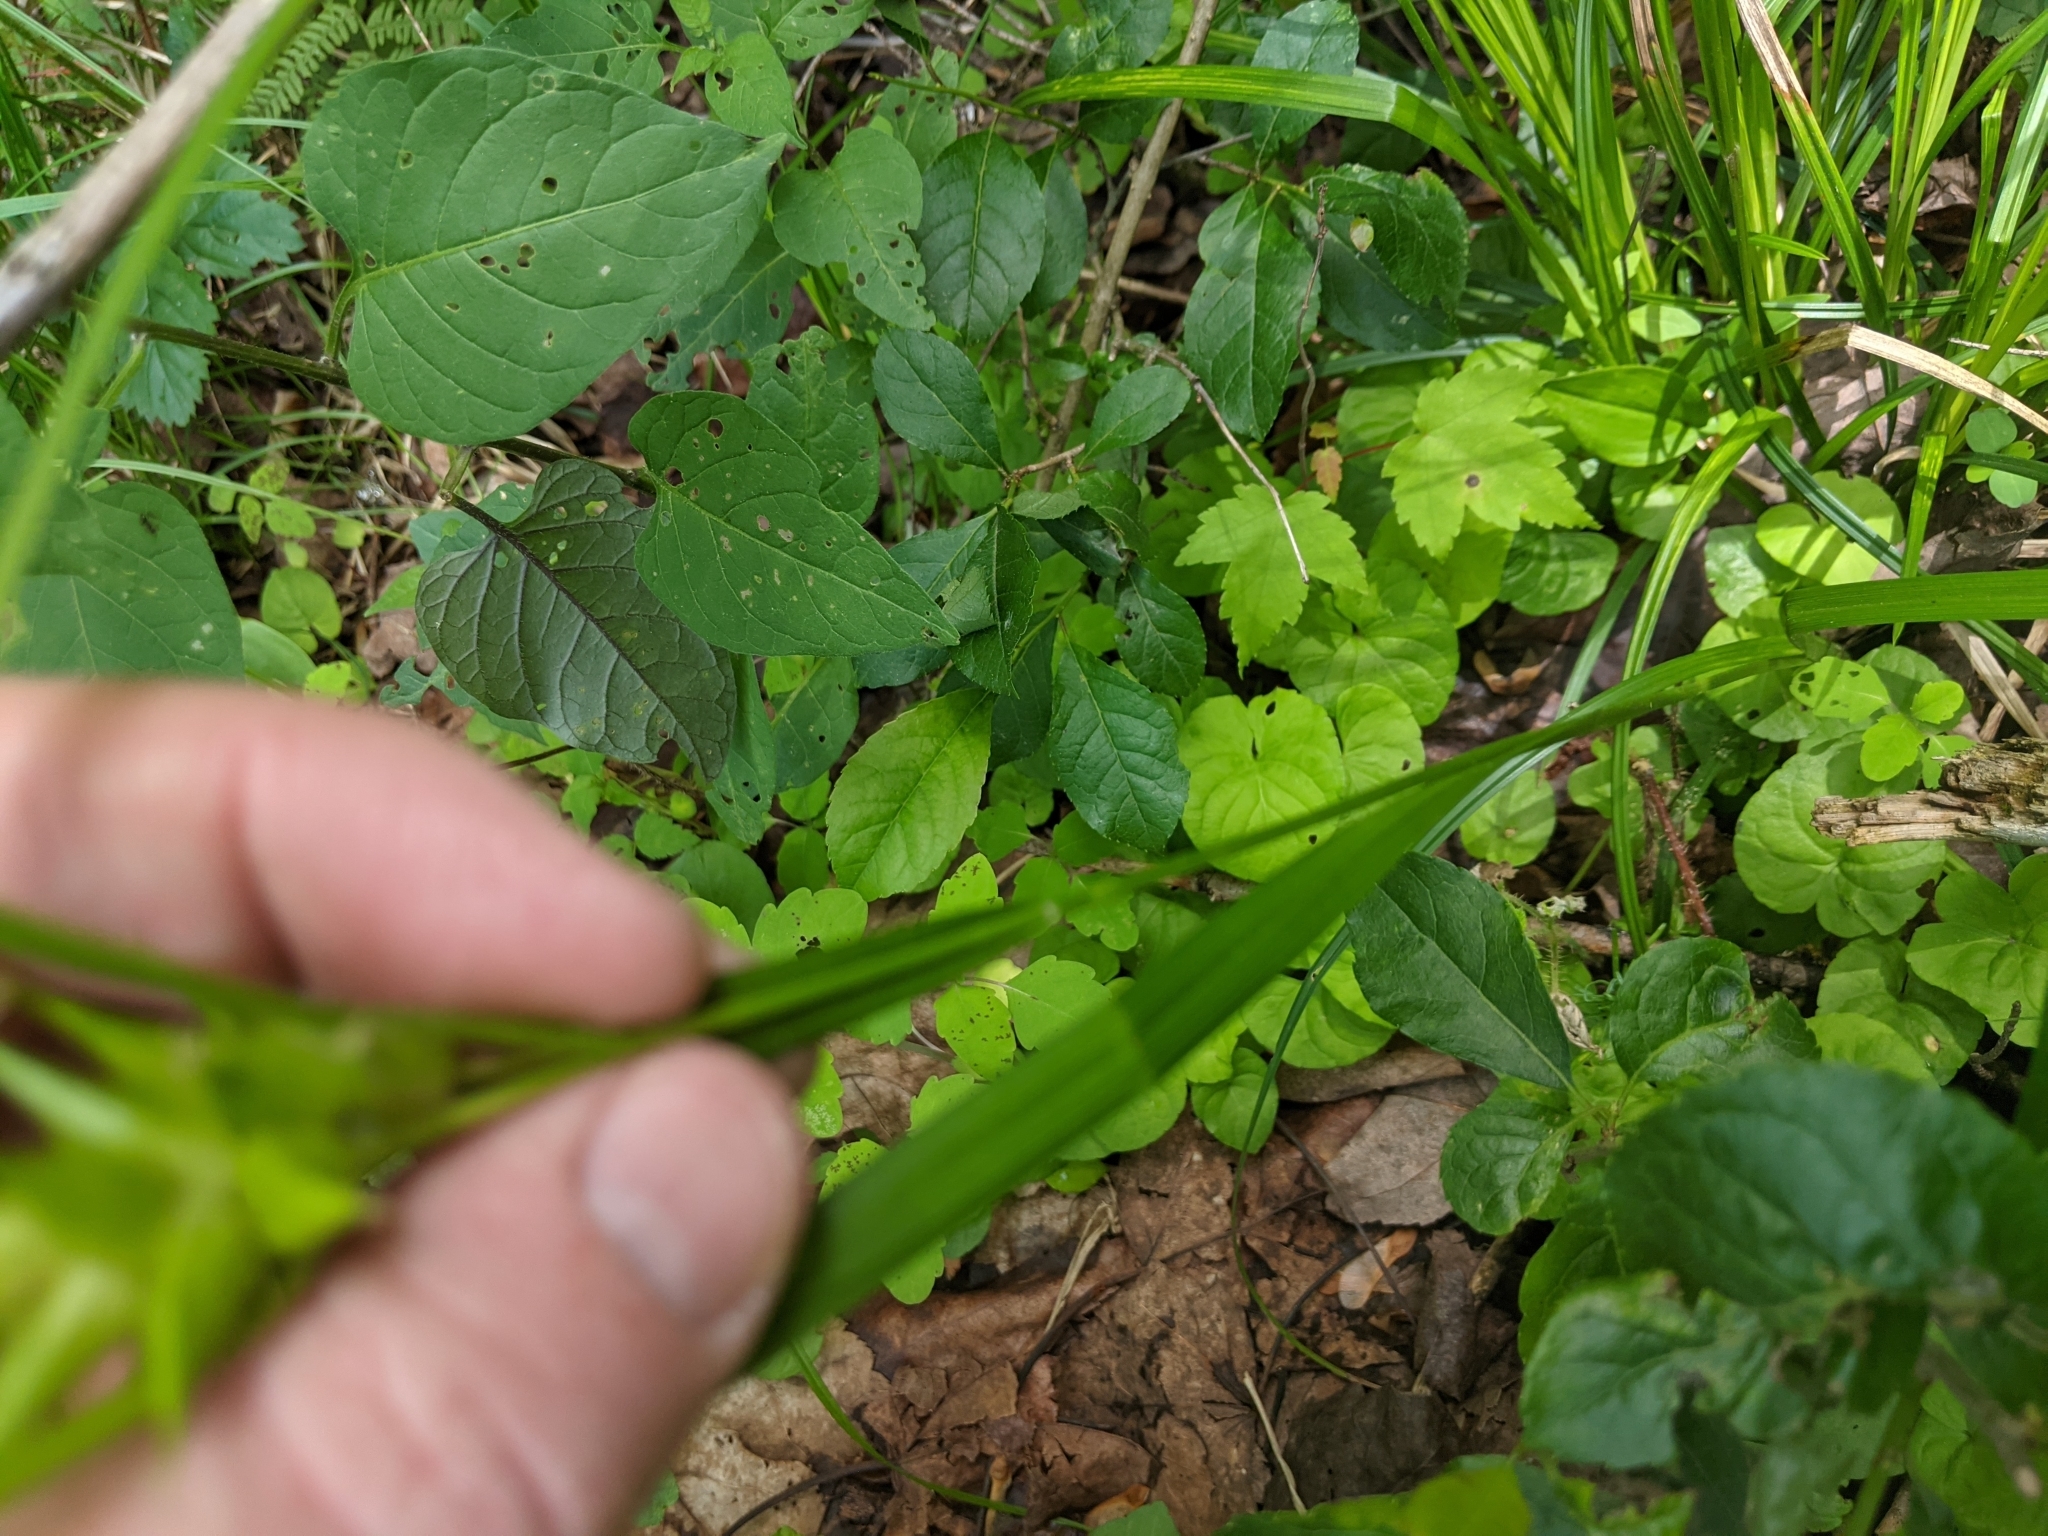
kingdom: Plantae
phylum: Tracheophyta
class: Liliopsida
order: Poales
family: Cyperaceae
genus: Carex
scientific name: Carex intumescens
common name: Greater bladder sedge
